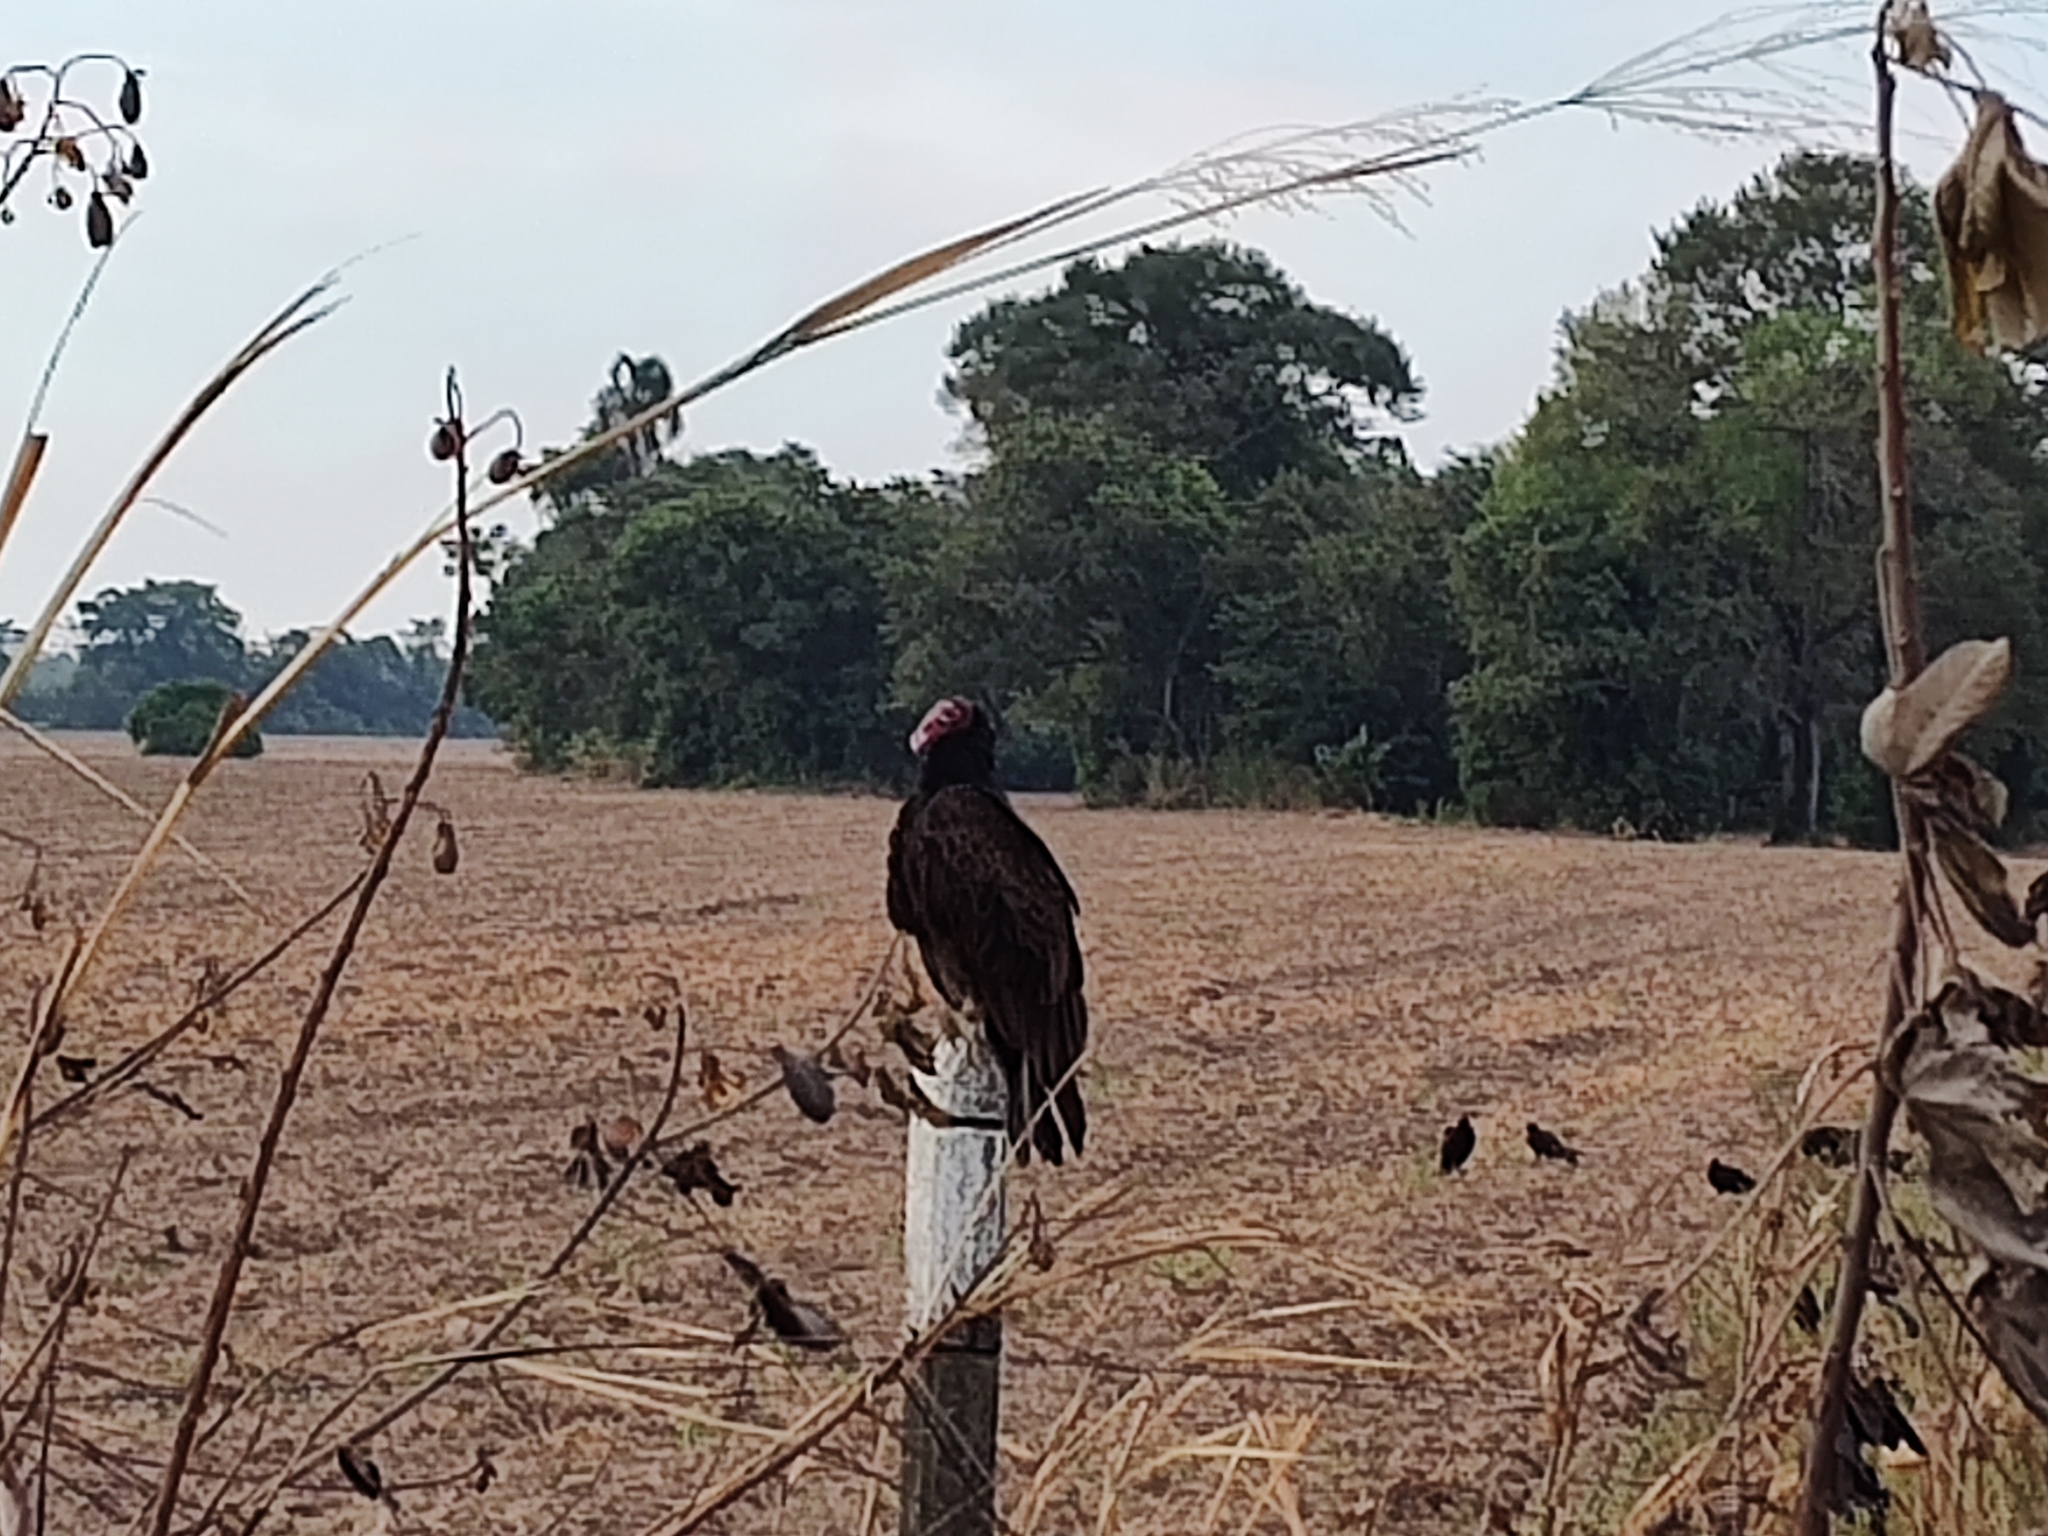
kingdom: Animalia
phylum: Chordata
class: Aves
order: Accipitriformes
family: Cathartidae
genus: Cathartes
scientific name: Cathartes aura
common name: Turkey vulture
